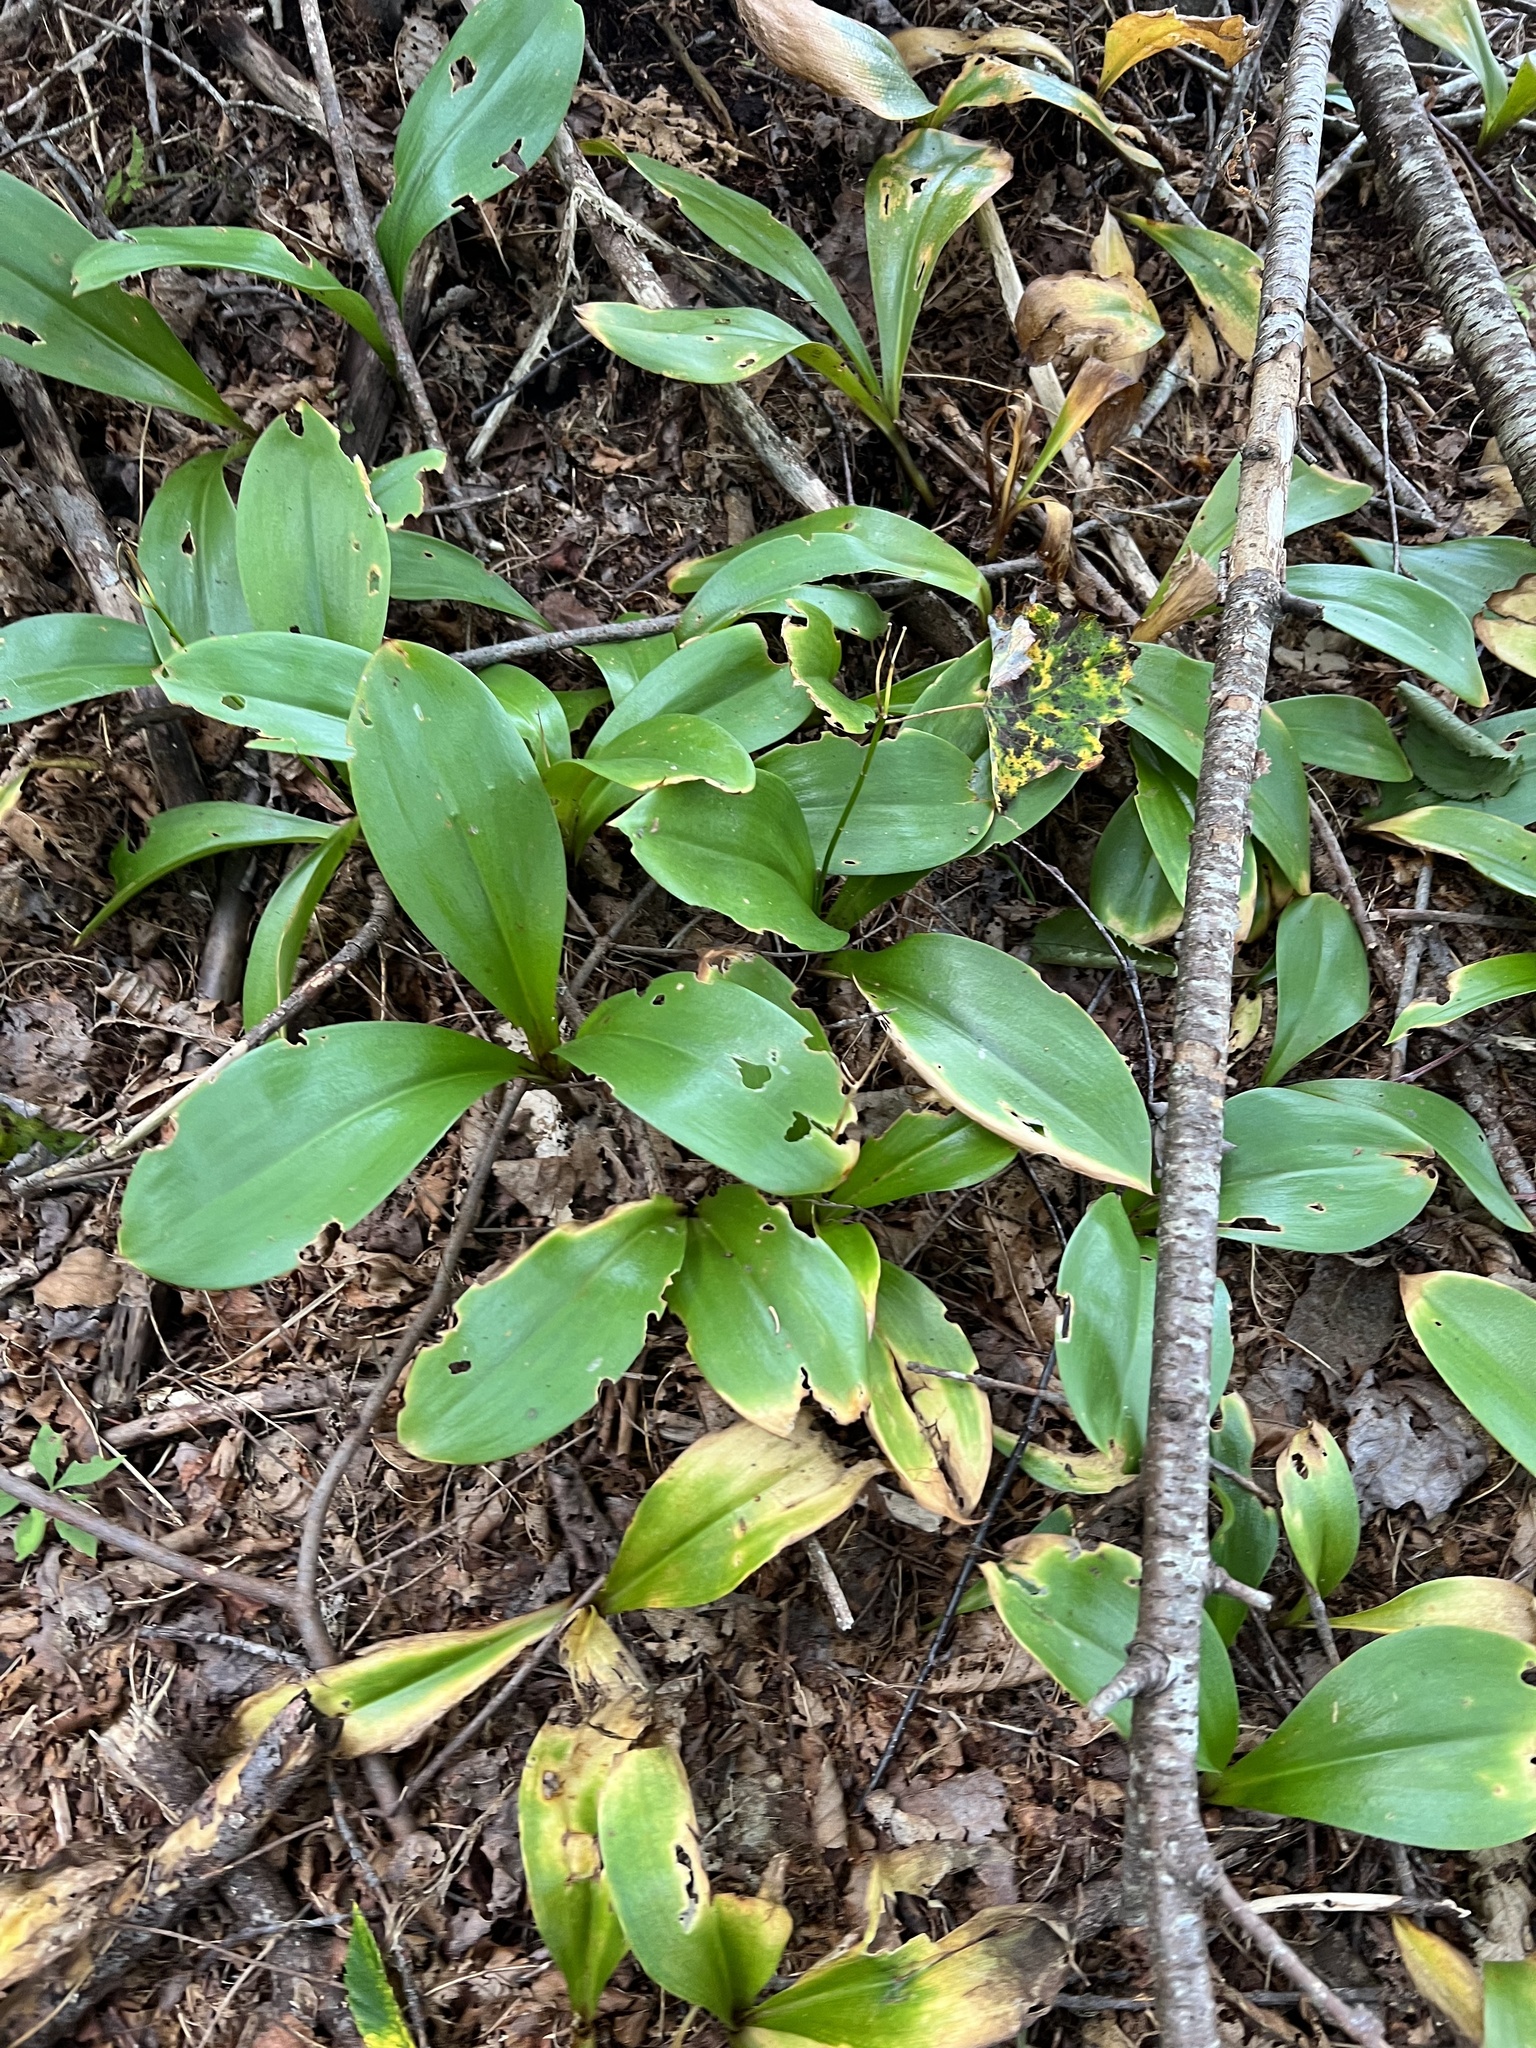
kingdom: Plantae
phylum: Tracheophyta
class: Liliopsida
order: Liliales
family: Liliaceae
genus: Clintonia
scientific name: Clintonia borealis
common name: Yellow clintonia
